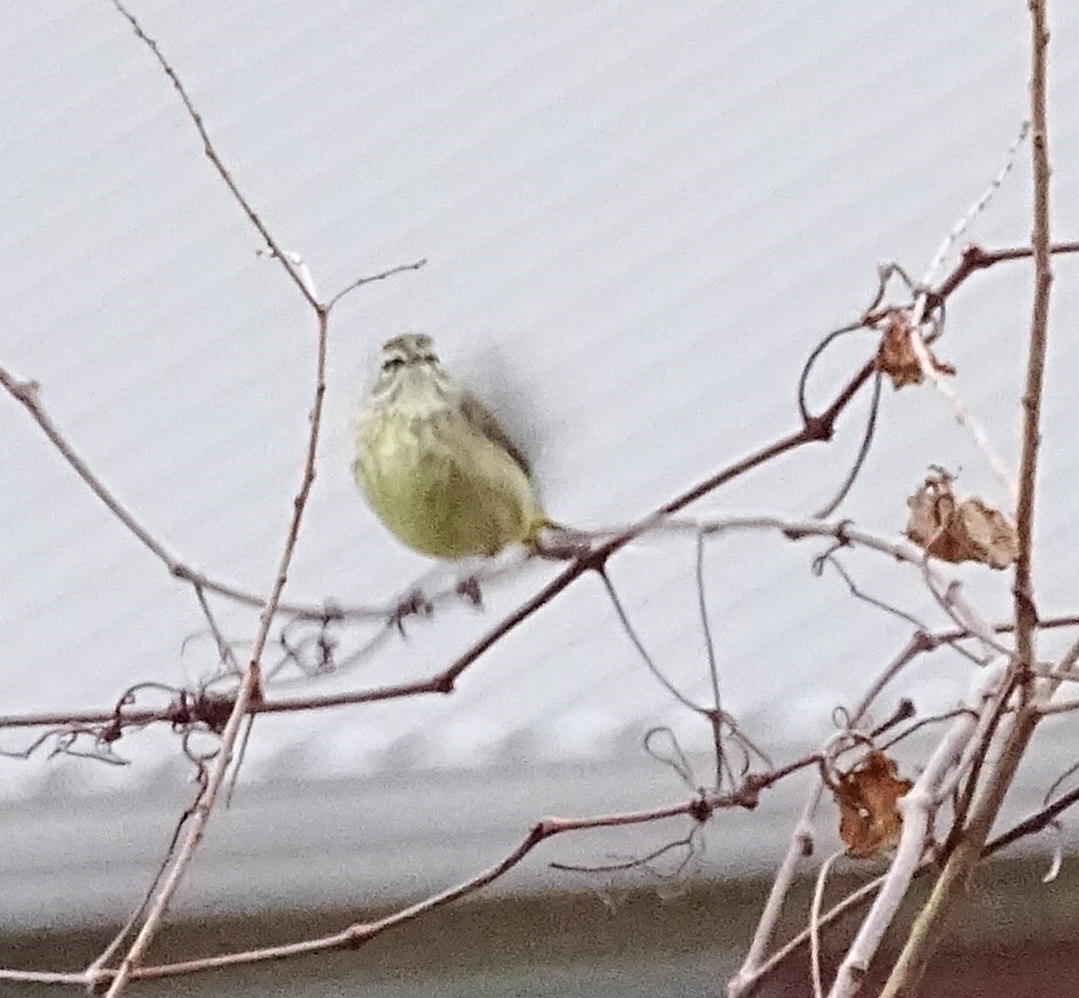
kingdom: Animalia
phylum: Chordata
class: Aves
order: Passeriformes
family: Parulidae
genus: Setophaga
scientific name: Setophaga palmarum
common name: Palm warbler
